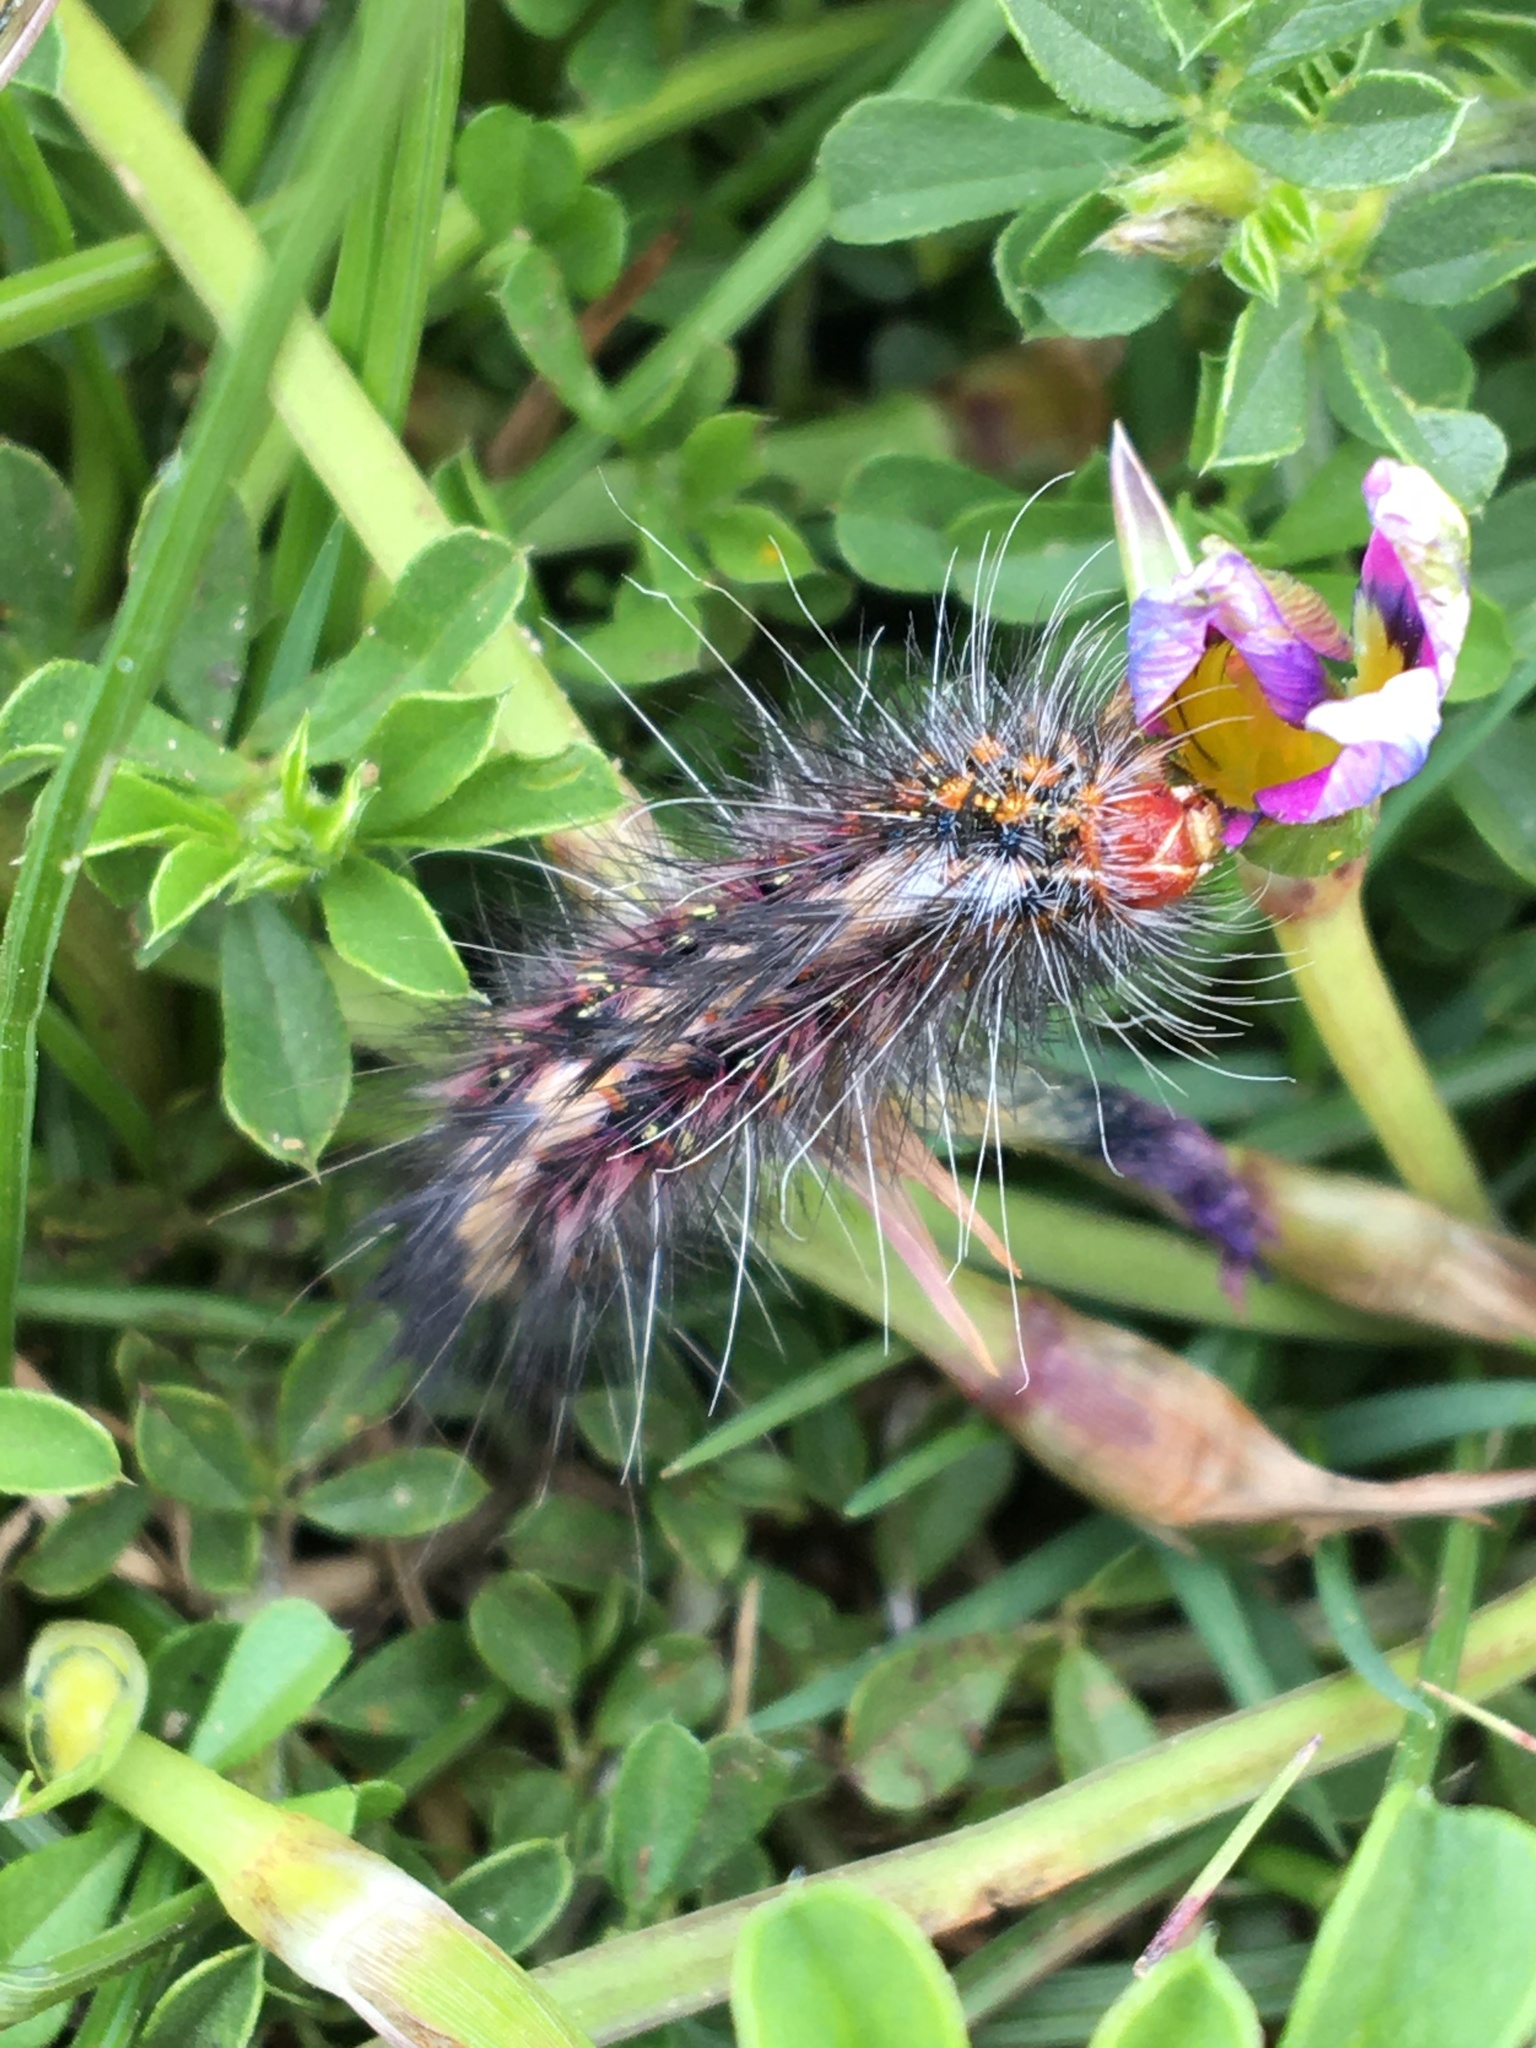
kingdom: Animalia
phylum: Arthropoda
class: Insecta
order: Lepidoptera
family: Erebidae
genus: Paralacydes
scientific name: Paralacydes vocula
